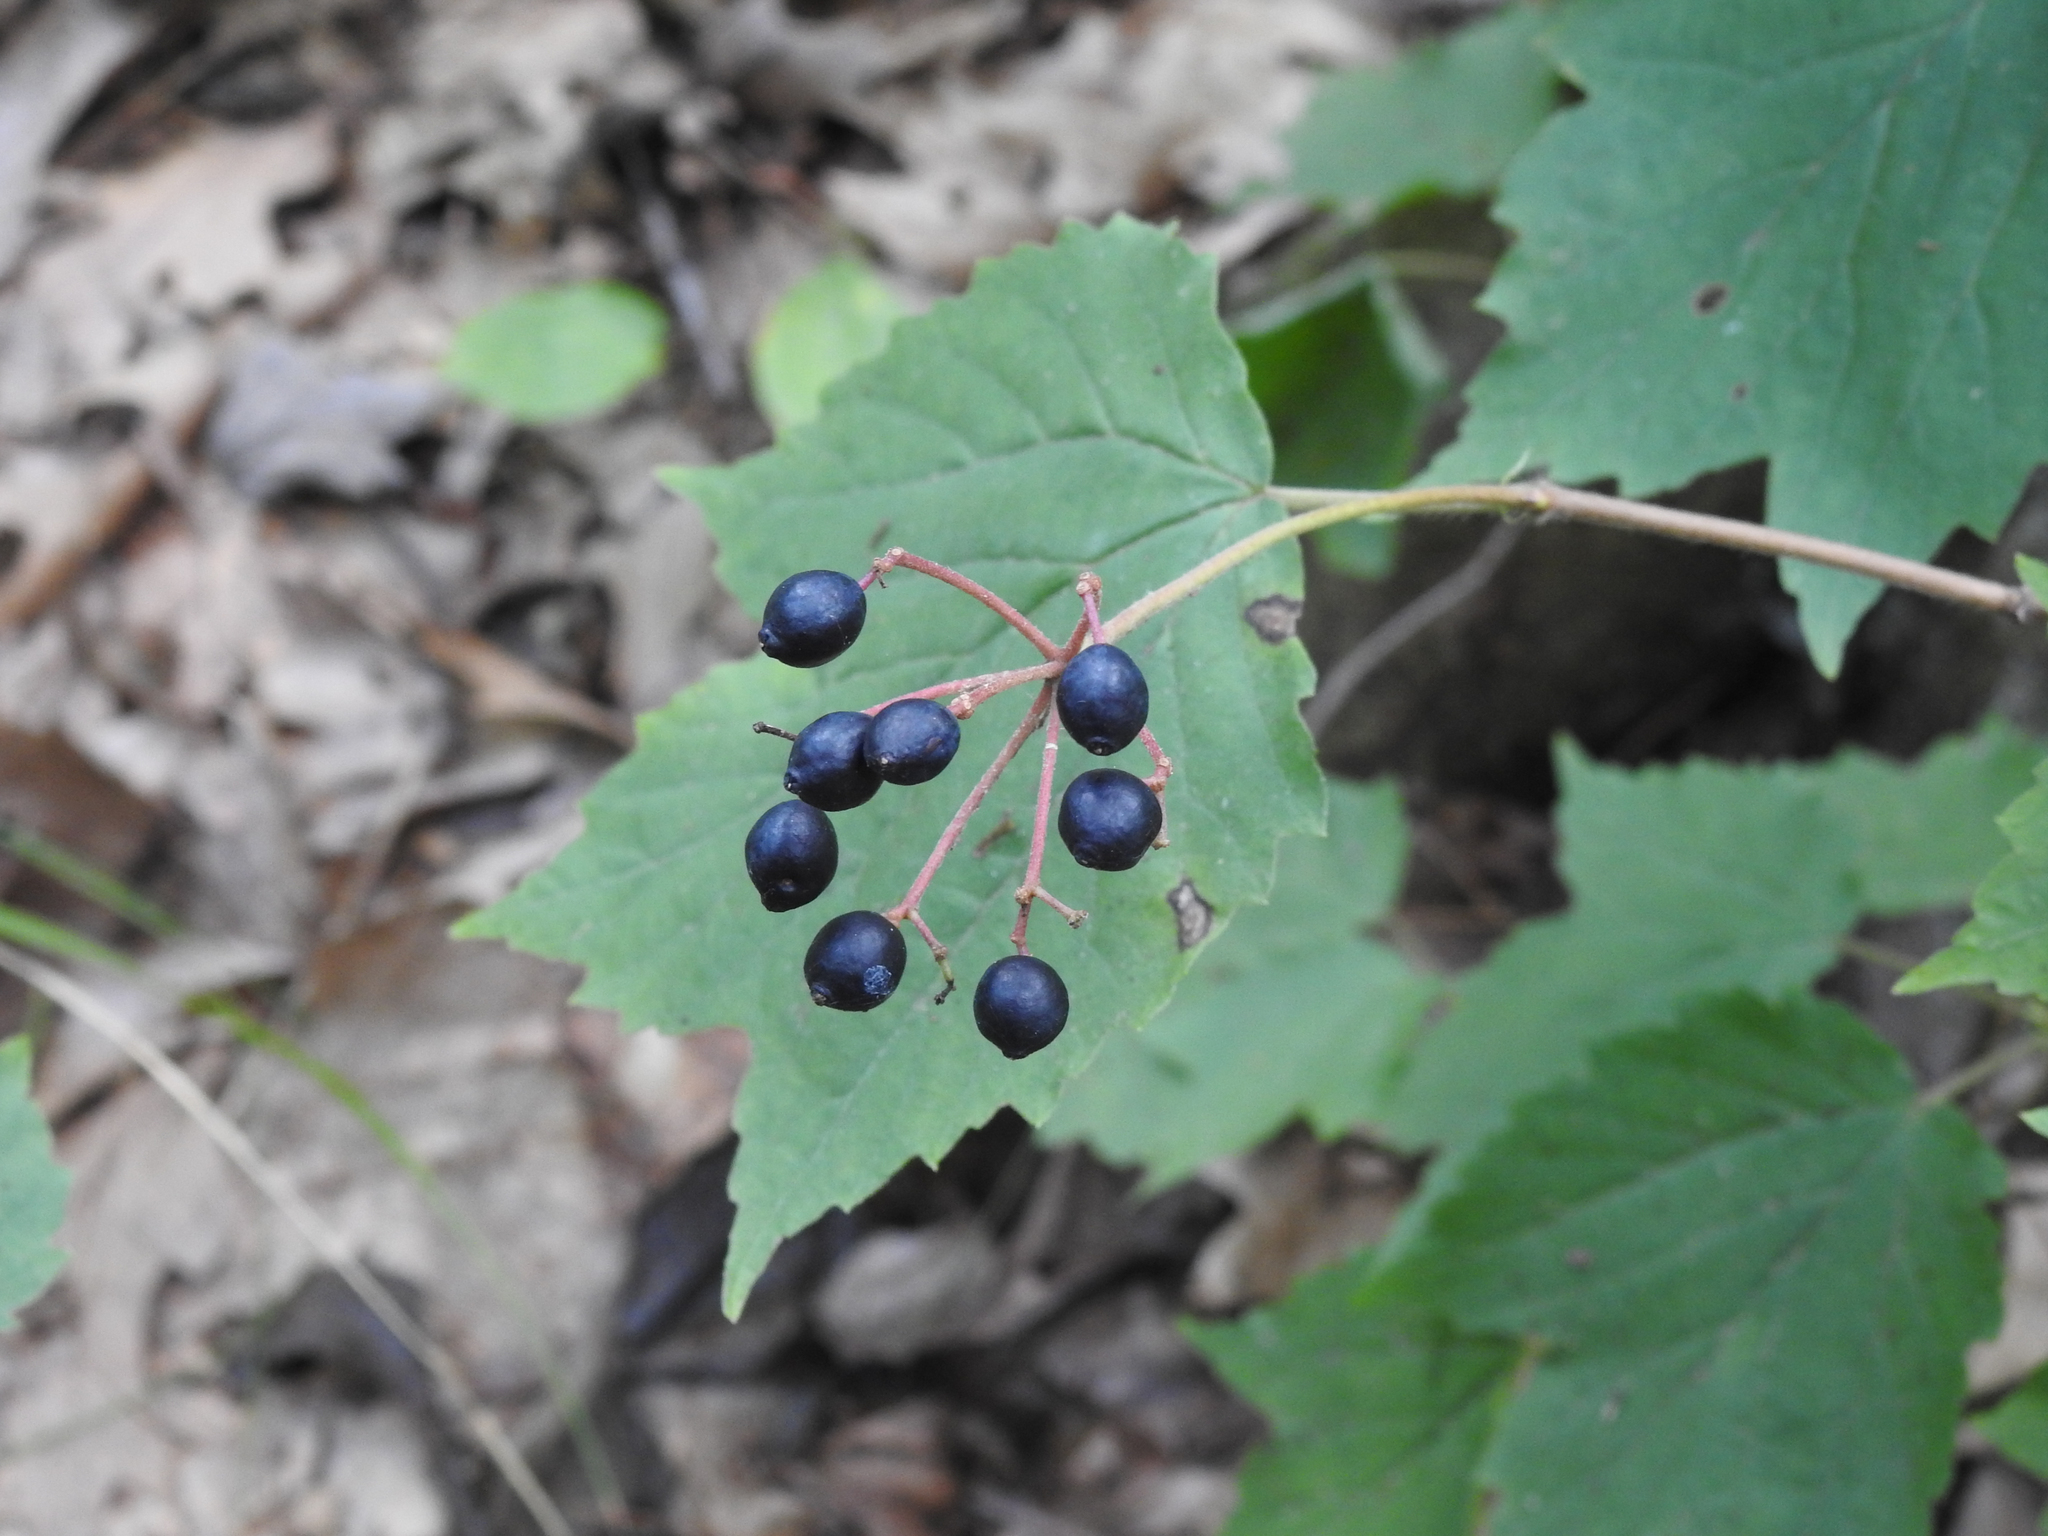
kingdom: Plantae
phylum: Tracheophyta
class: Magnoliopsida
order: Dipsacales
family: Viburnaceae
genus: Viburnum
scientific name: Viburnum acerifolium
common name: Dockmackie
